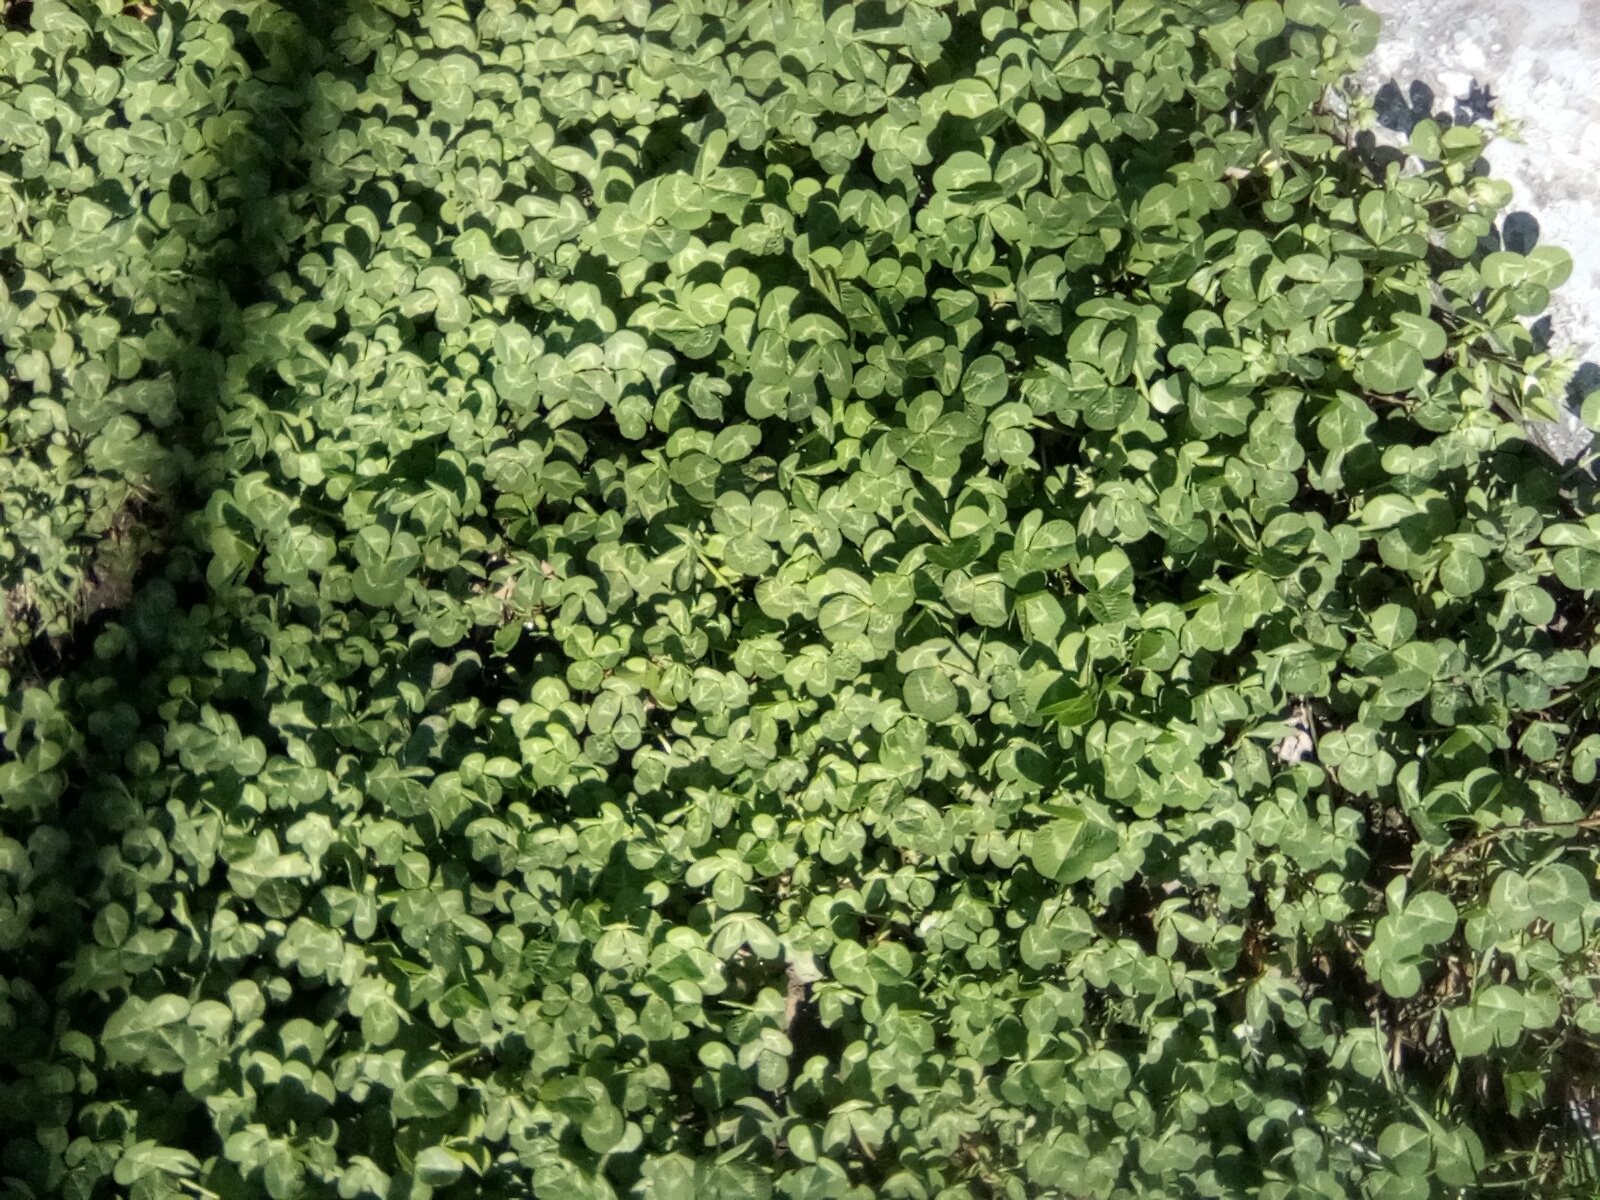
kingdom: Plantae
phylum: Tracheophyta
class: Magnoliopsida
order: Fabales
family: Fabaceae
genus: Trifolium
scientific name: Trifolium repens
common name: White clover
